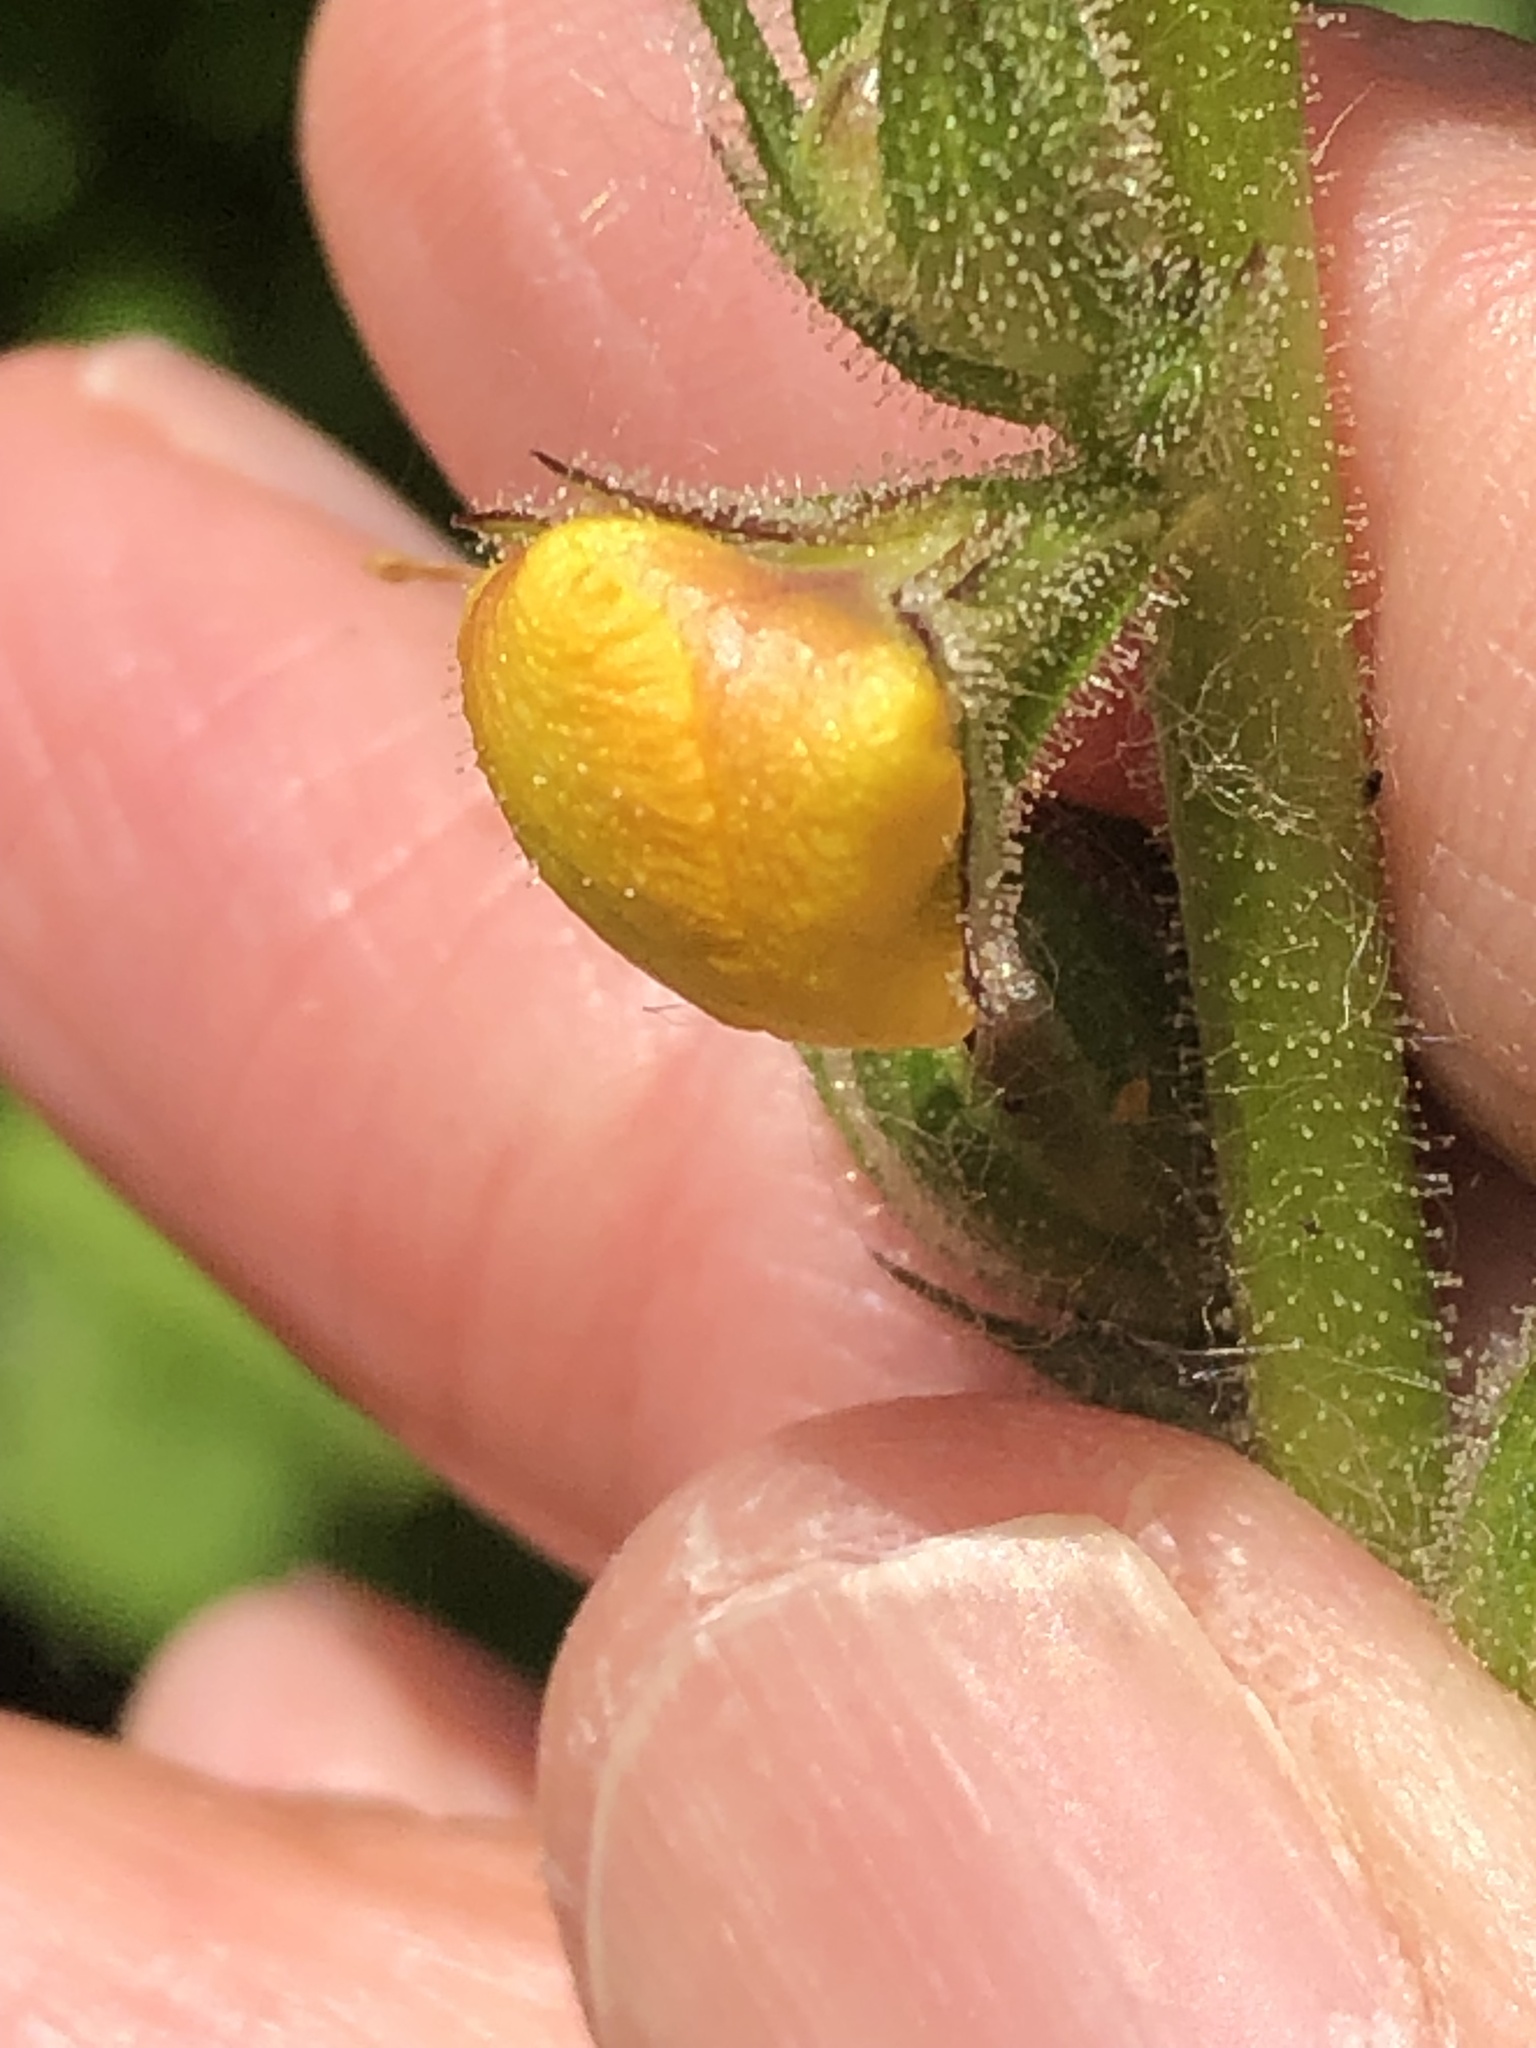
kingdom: Plantae
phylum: Tracheophyta
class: Magnoliopsida
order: Lamiales
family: Scrophulariaceae
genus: Verbascum
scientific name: Verbascum virgatum
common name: Twiggy mullein
